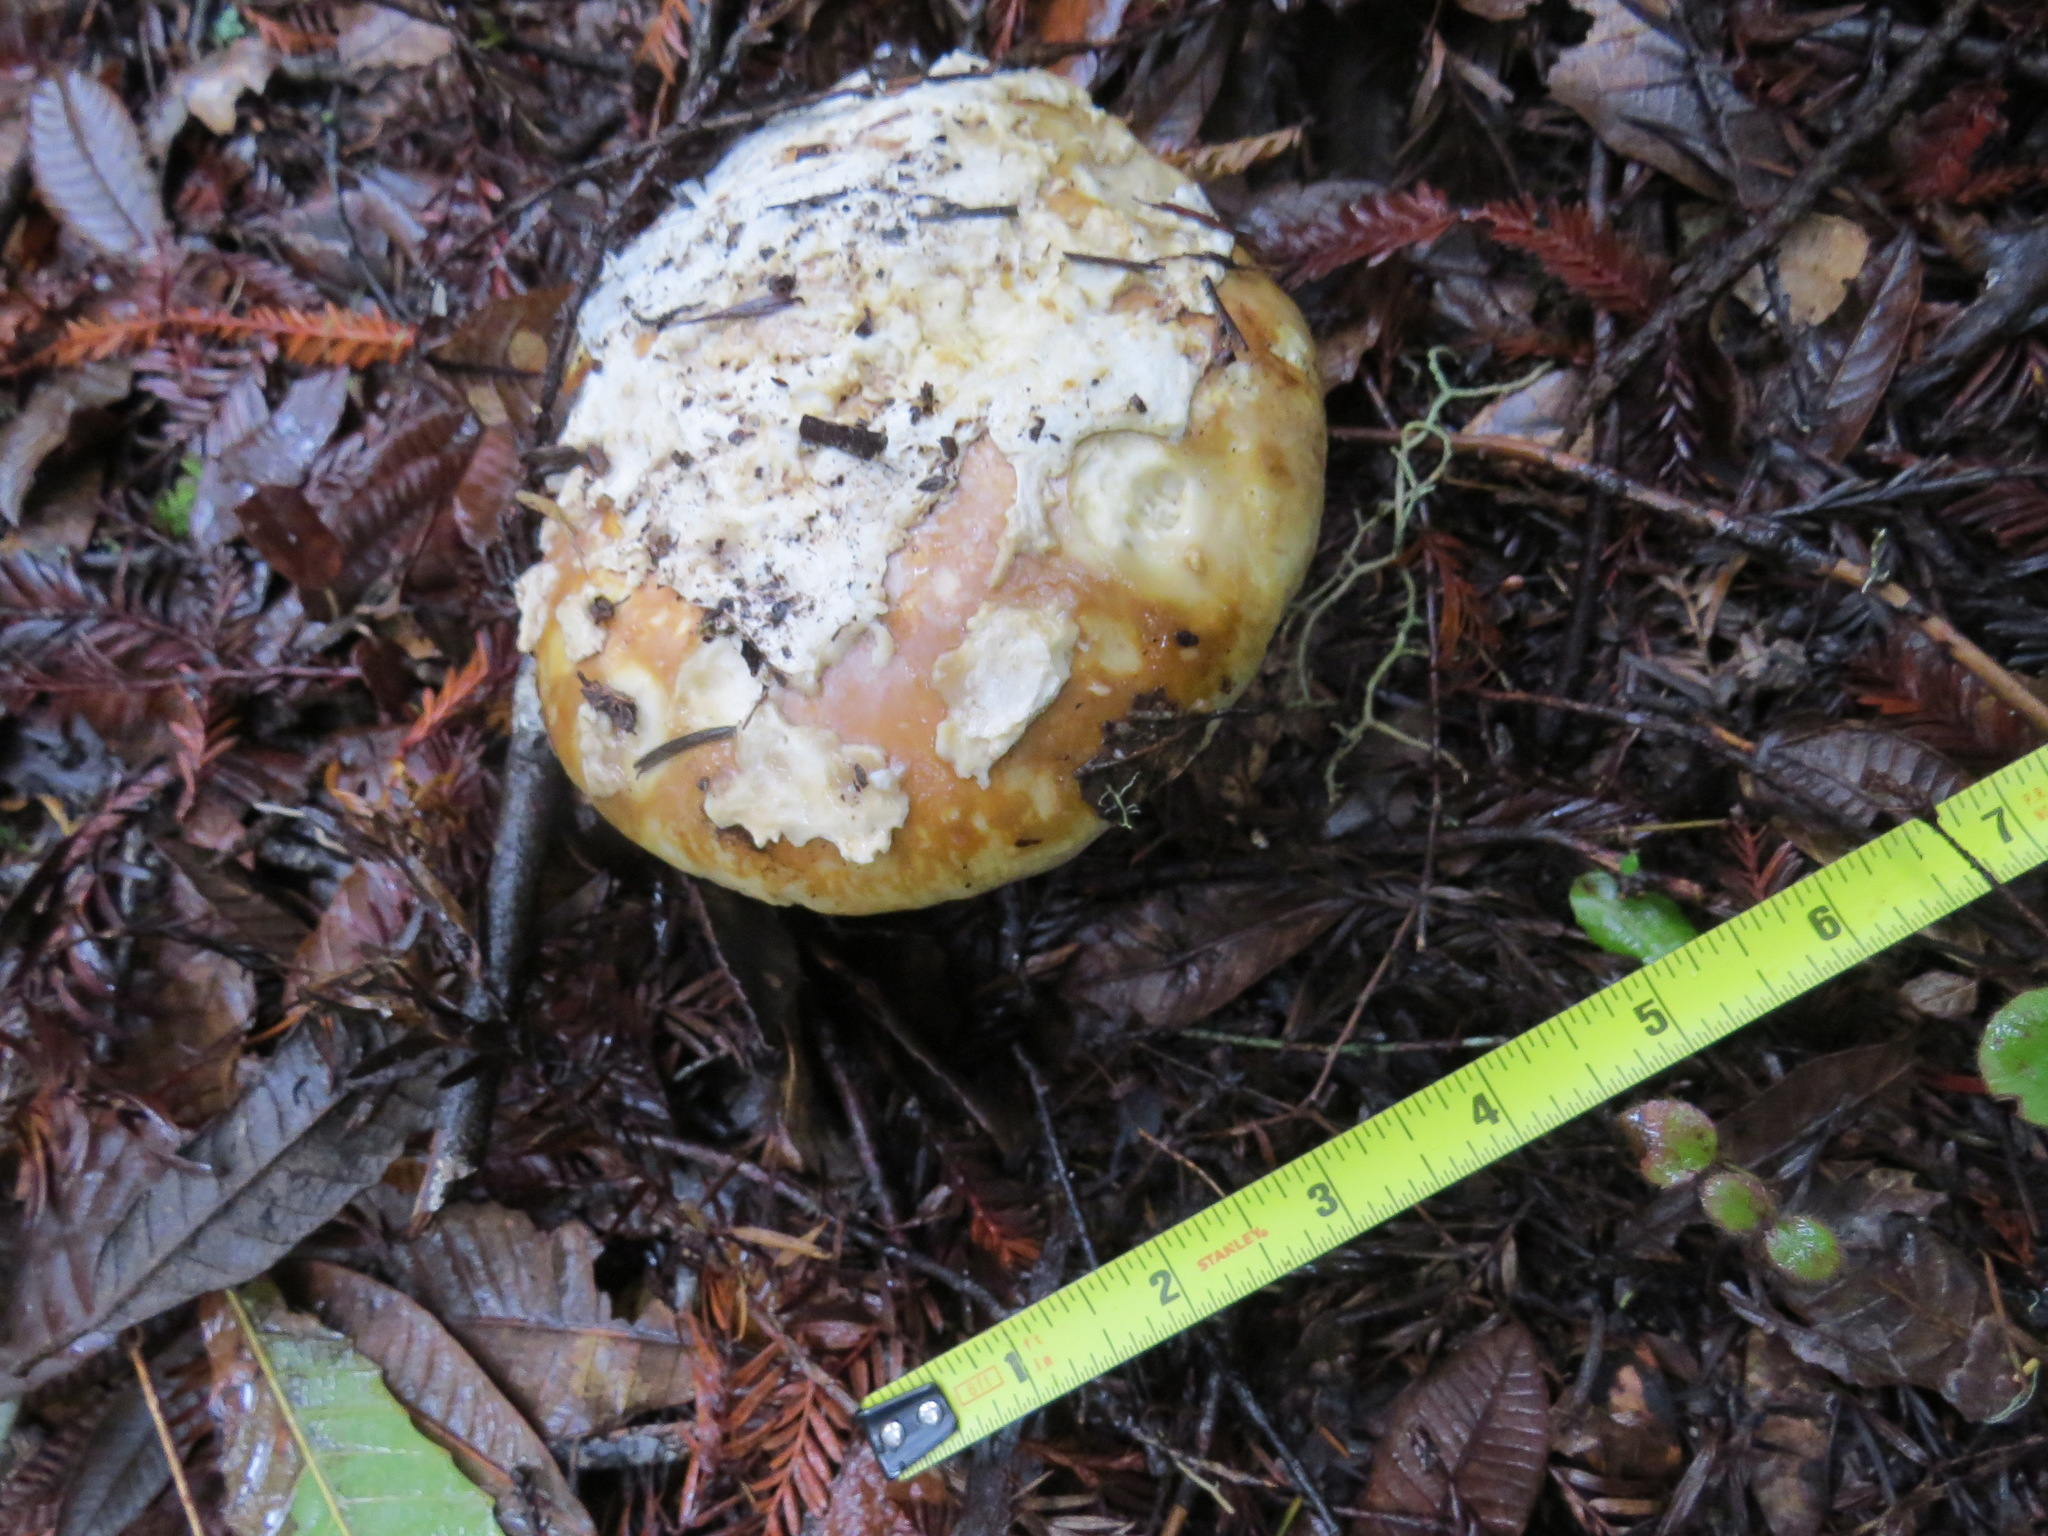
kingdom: Fungi
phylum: Basidiomycota
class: Agaricomycetes
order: Agaricales
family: Amanitaceae
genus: Amanita
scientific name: Amanita calyptroderma
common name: Coccora
